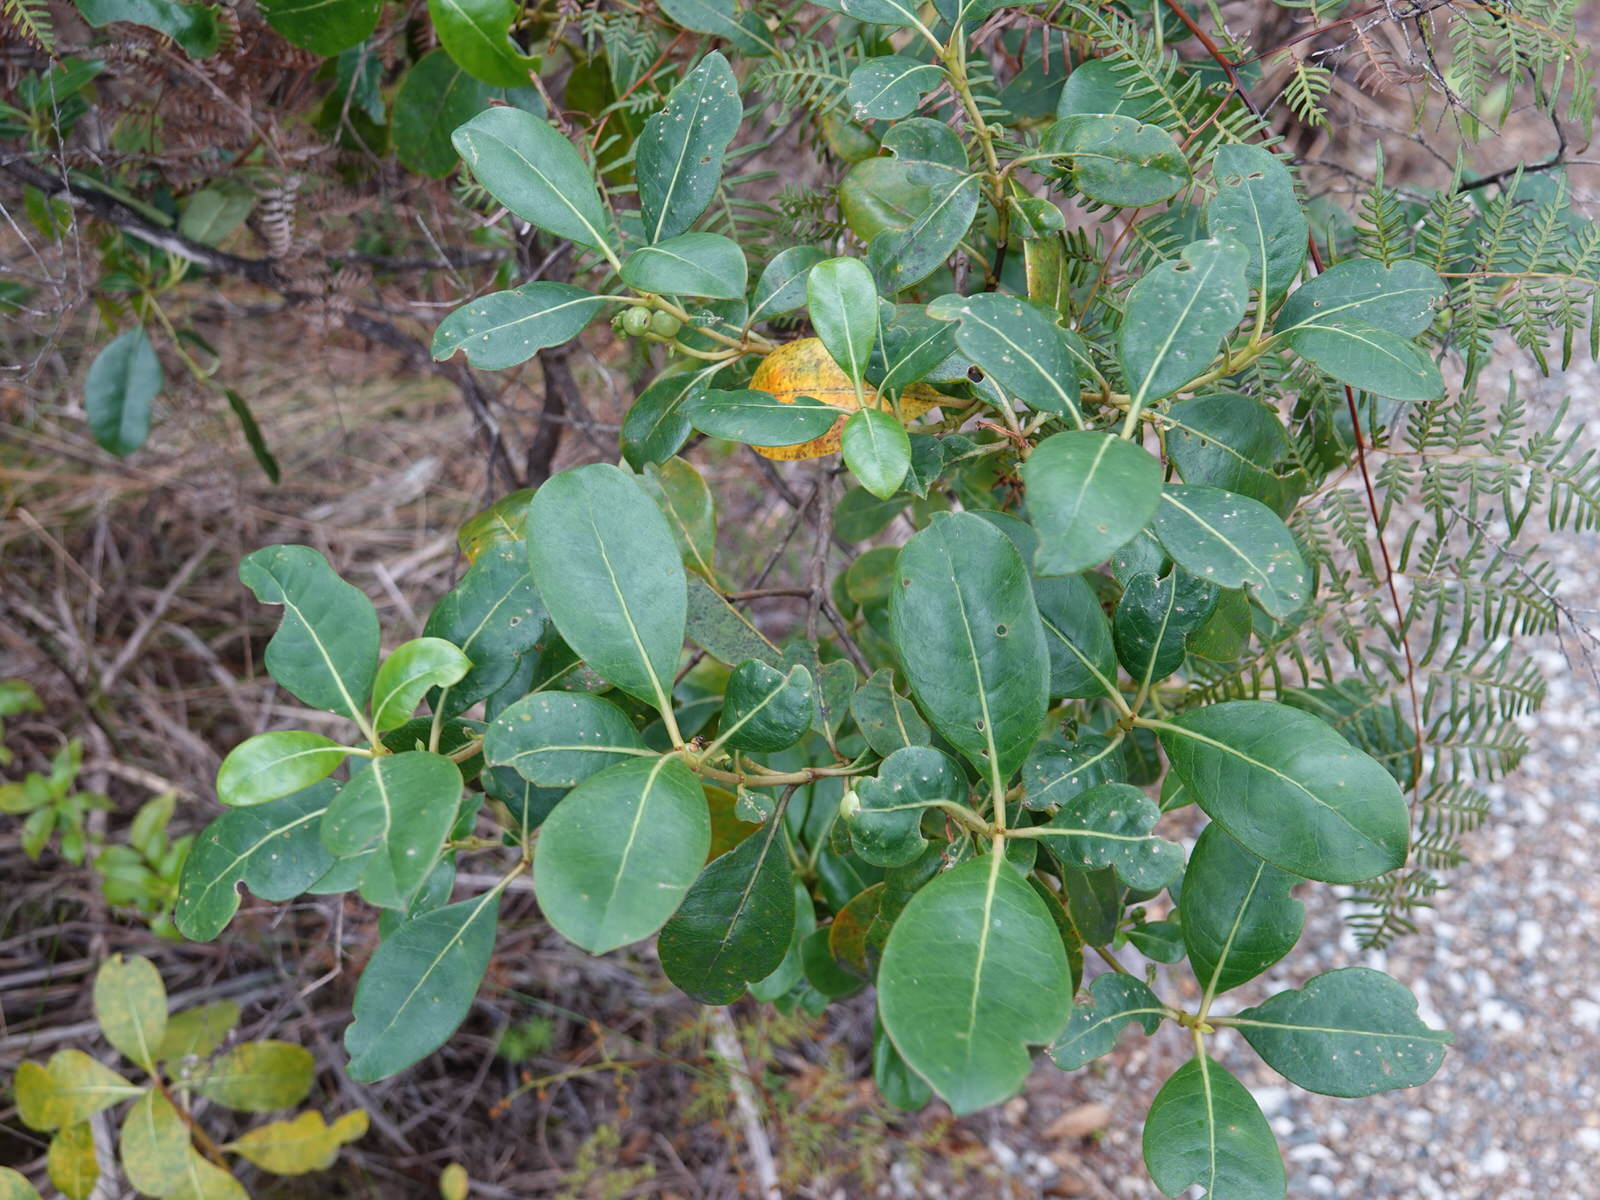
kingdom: Plantae
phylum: Tracheophyta
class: Magnoliopsida
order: Gentianales
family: Rubiaceae
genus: Coprosma
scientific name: Coprosma lucida
